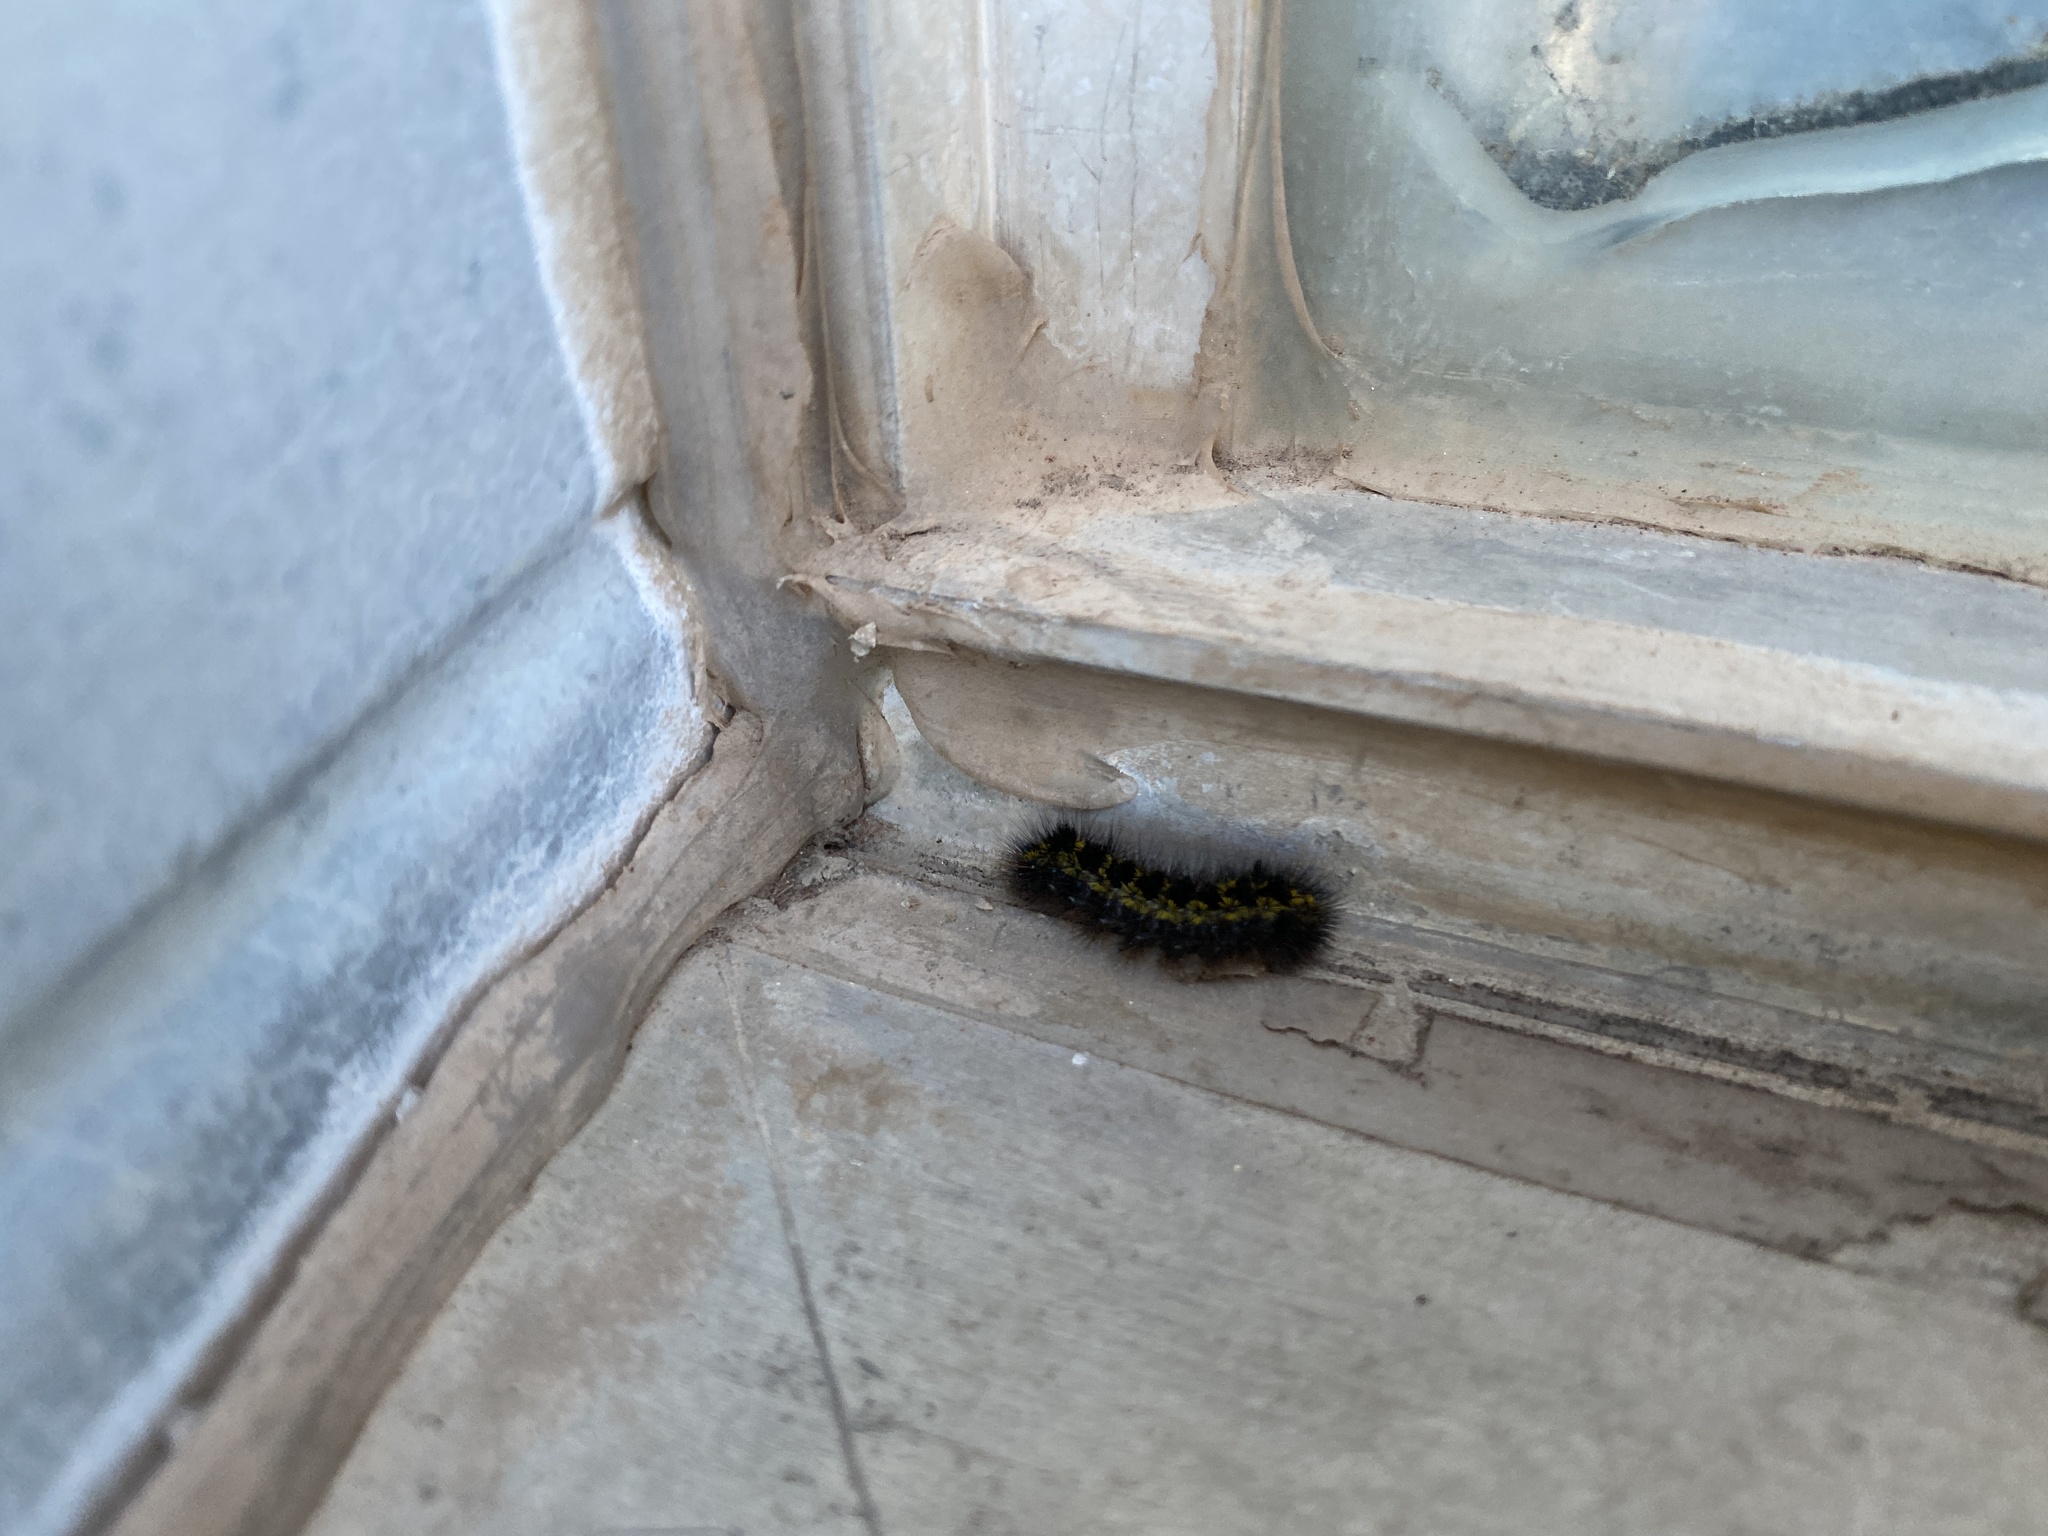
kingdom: Animalia
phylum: Arthropoda
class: Insecta
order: Lepidoptera
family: Erebidae
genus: Lophocampa
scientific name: Lophocampa argentata
